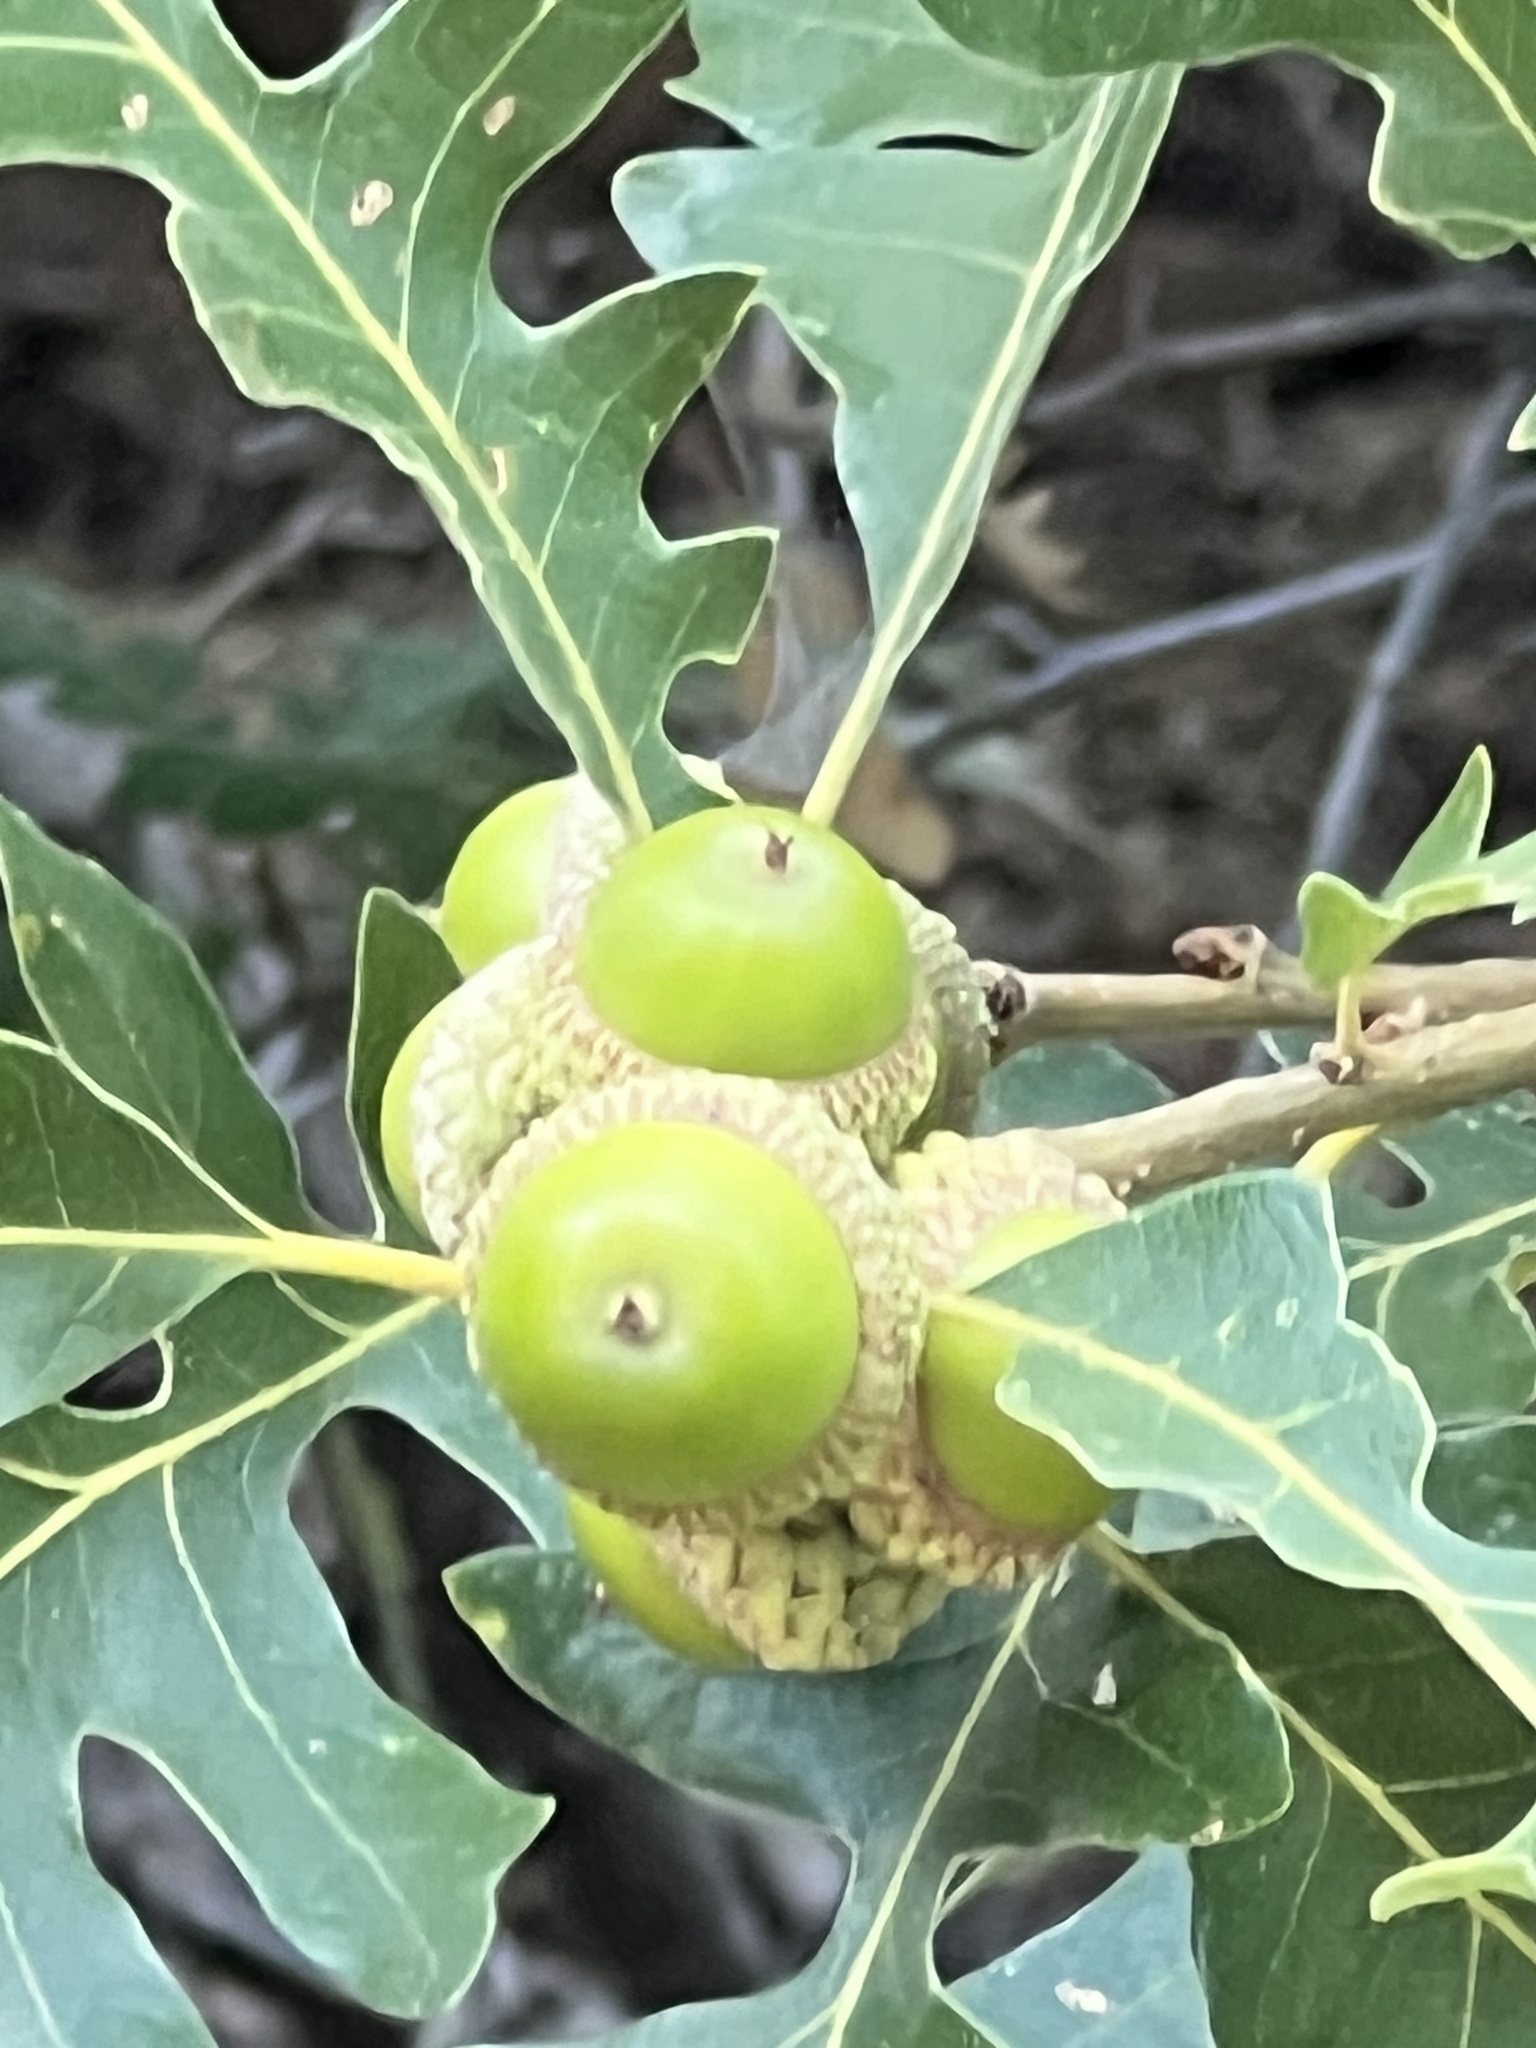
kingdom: Plantae
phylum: Tracheophyta
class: Magnoliopsida
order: Fagales
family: Fagaceae
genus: Quercus
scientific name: Quercus gambelii
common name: Gambel oak
